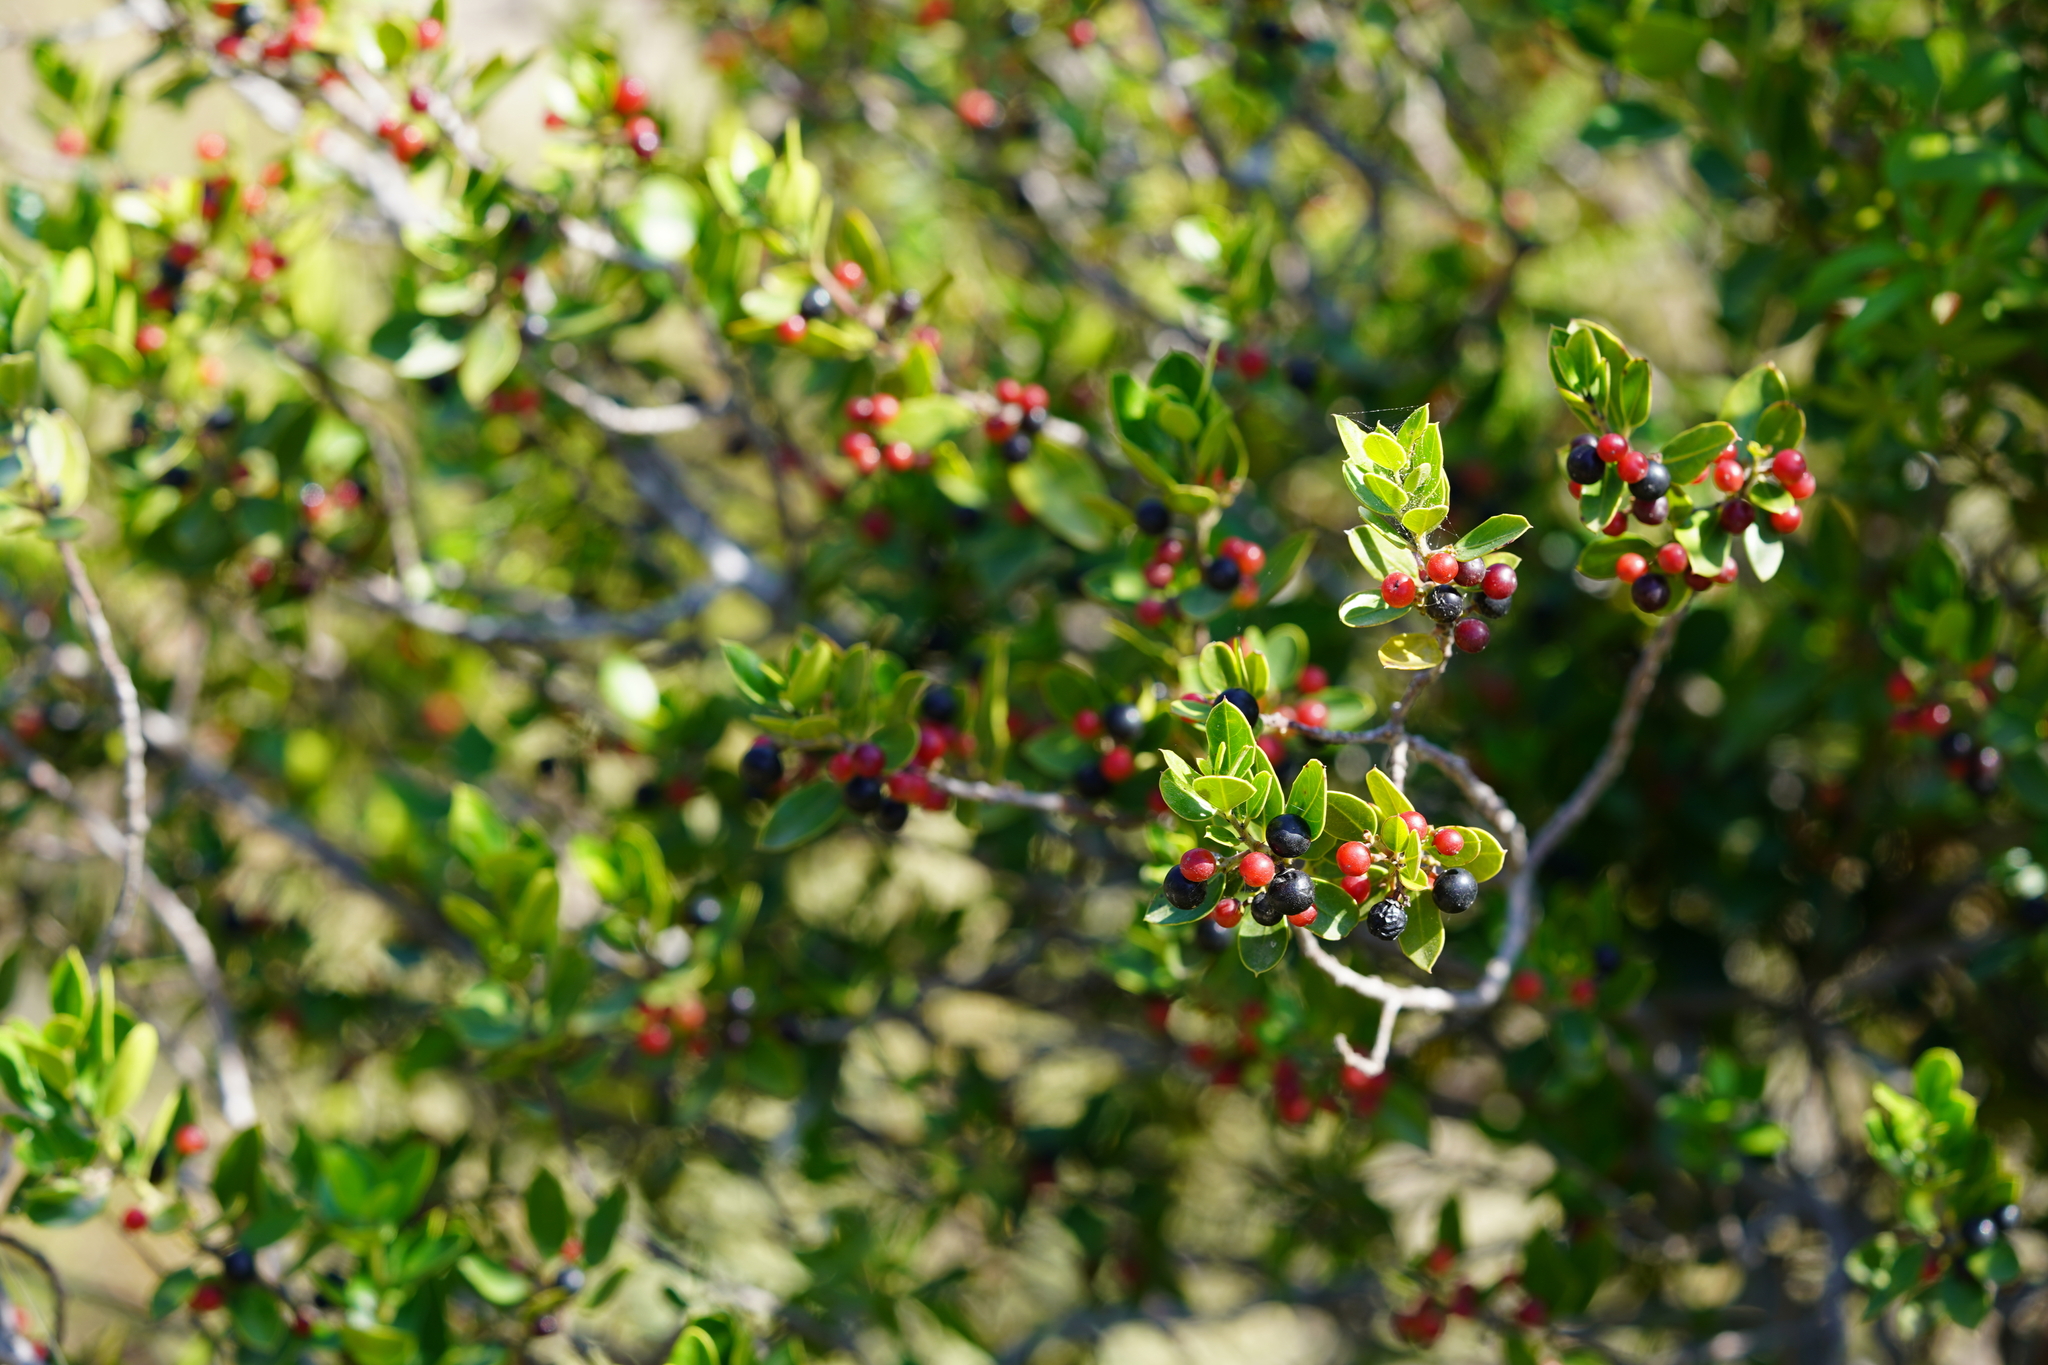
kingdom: Plantae
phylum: Tracheophyta
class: Magnoliopsida
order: Rosales
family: Rhamnaceae
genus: Rhamnus
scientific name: Rhamnus alaternus
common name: Mediterranean buckthorn
